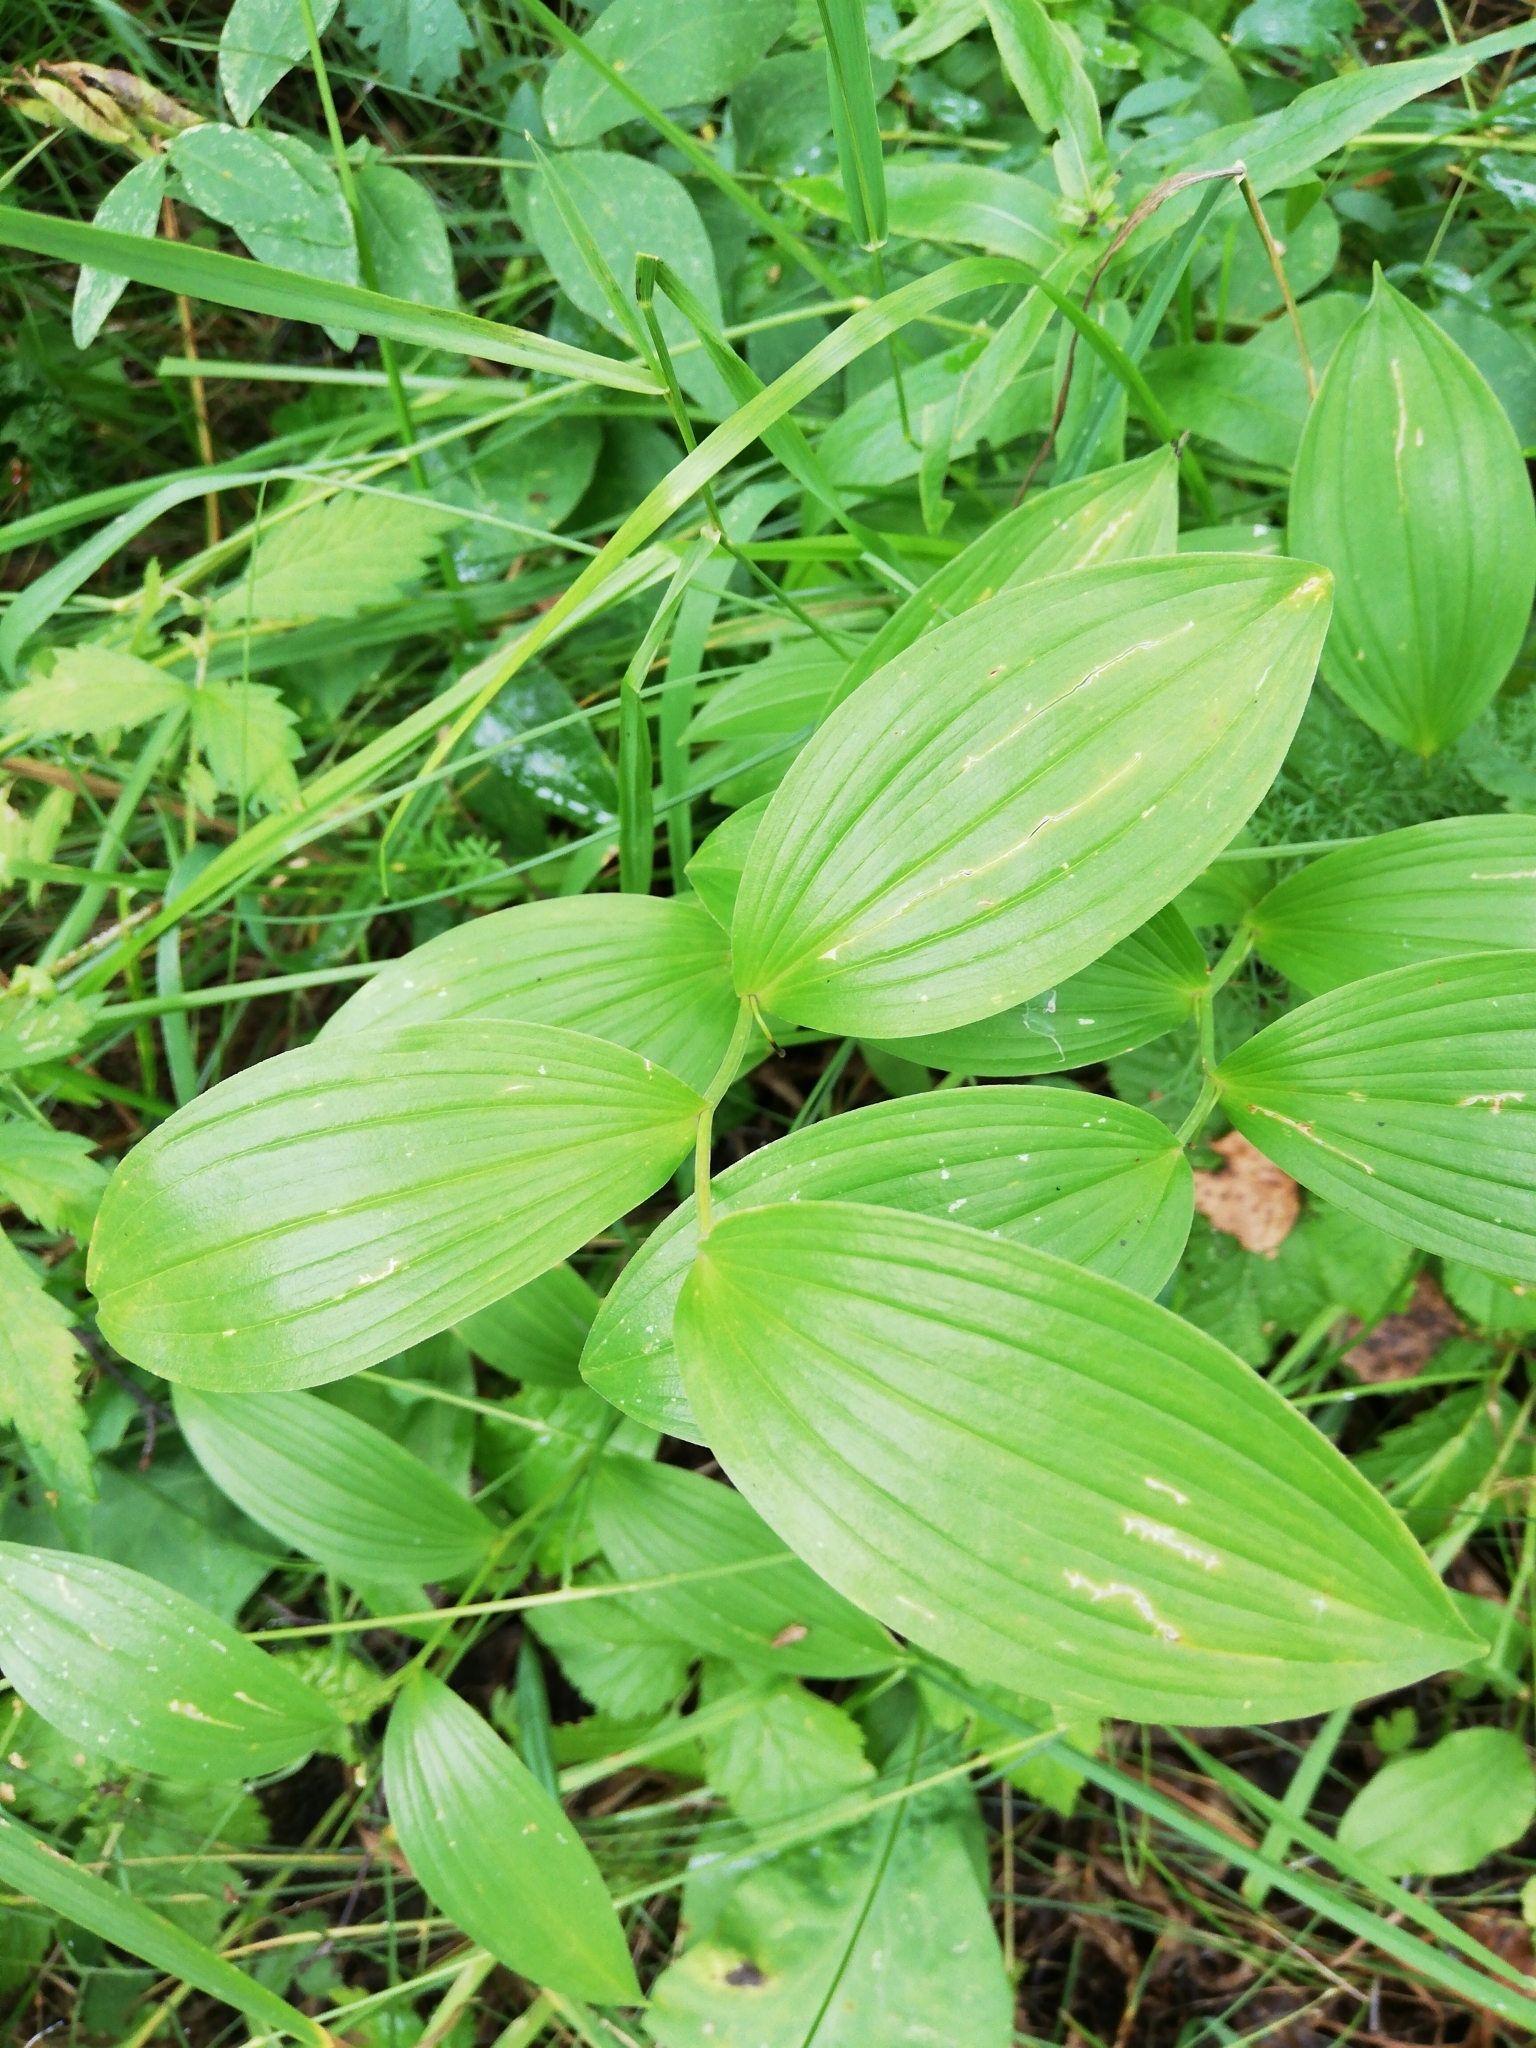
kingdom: Plantae
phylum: Tracheophyta
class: Liliopsida
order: Asparagales
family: Asparagaceae
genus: Polygonatum
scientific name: Polygonatum odoratum
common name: Angular solomon's-seal
